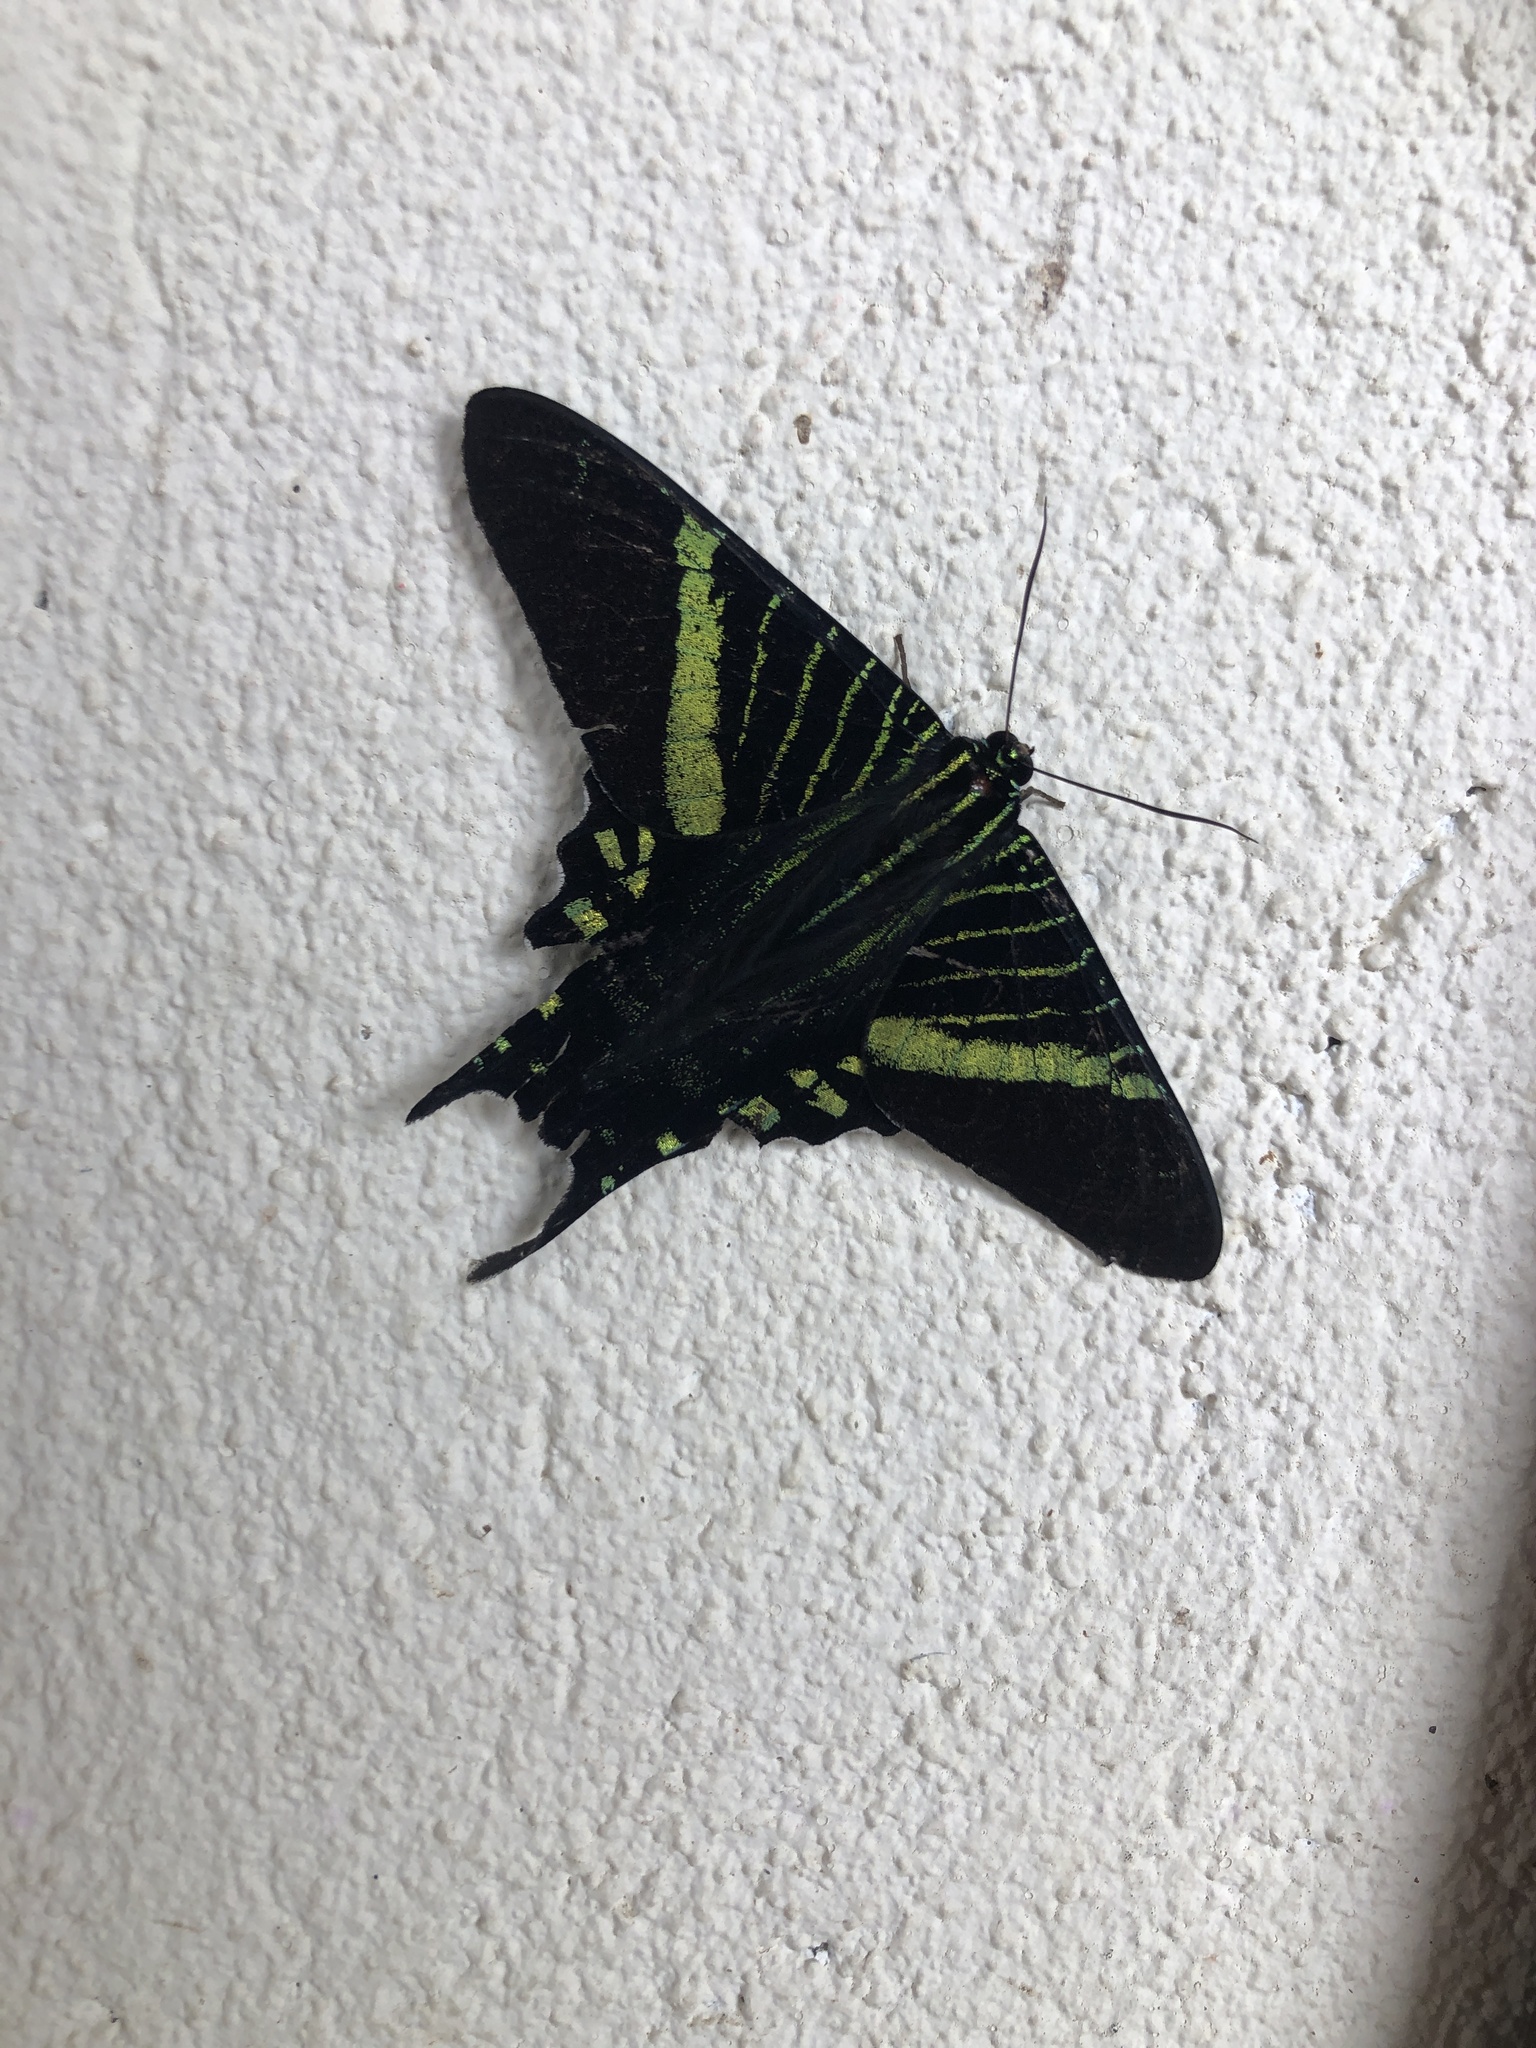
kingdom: Animalia
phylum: Arthropoda
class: Insecta
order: Lepidoptera
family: Uraniidae
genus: Urania
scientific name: Urania fulgens
